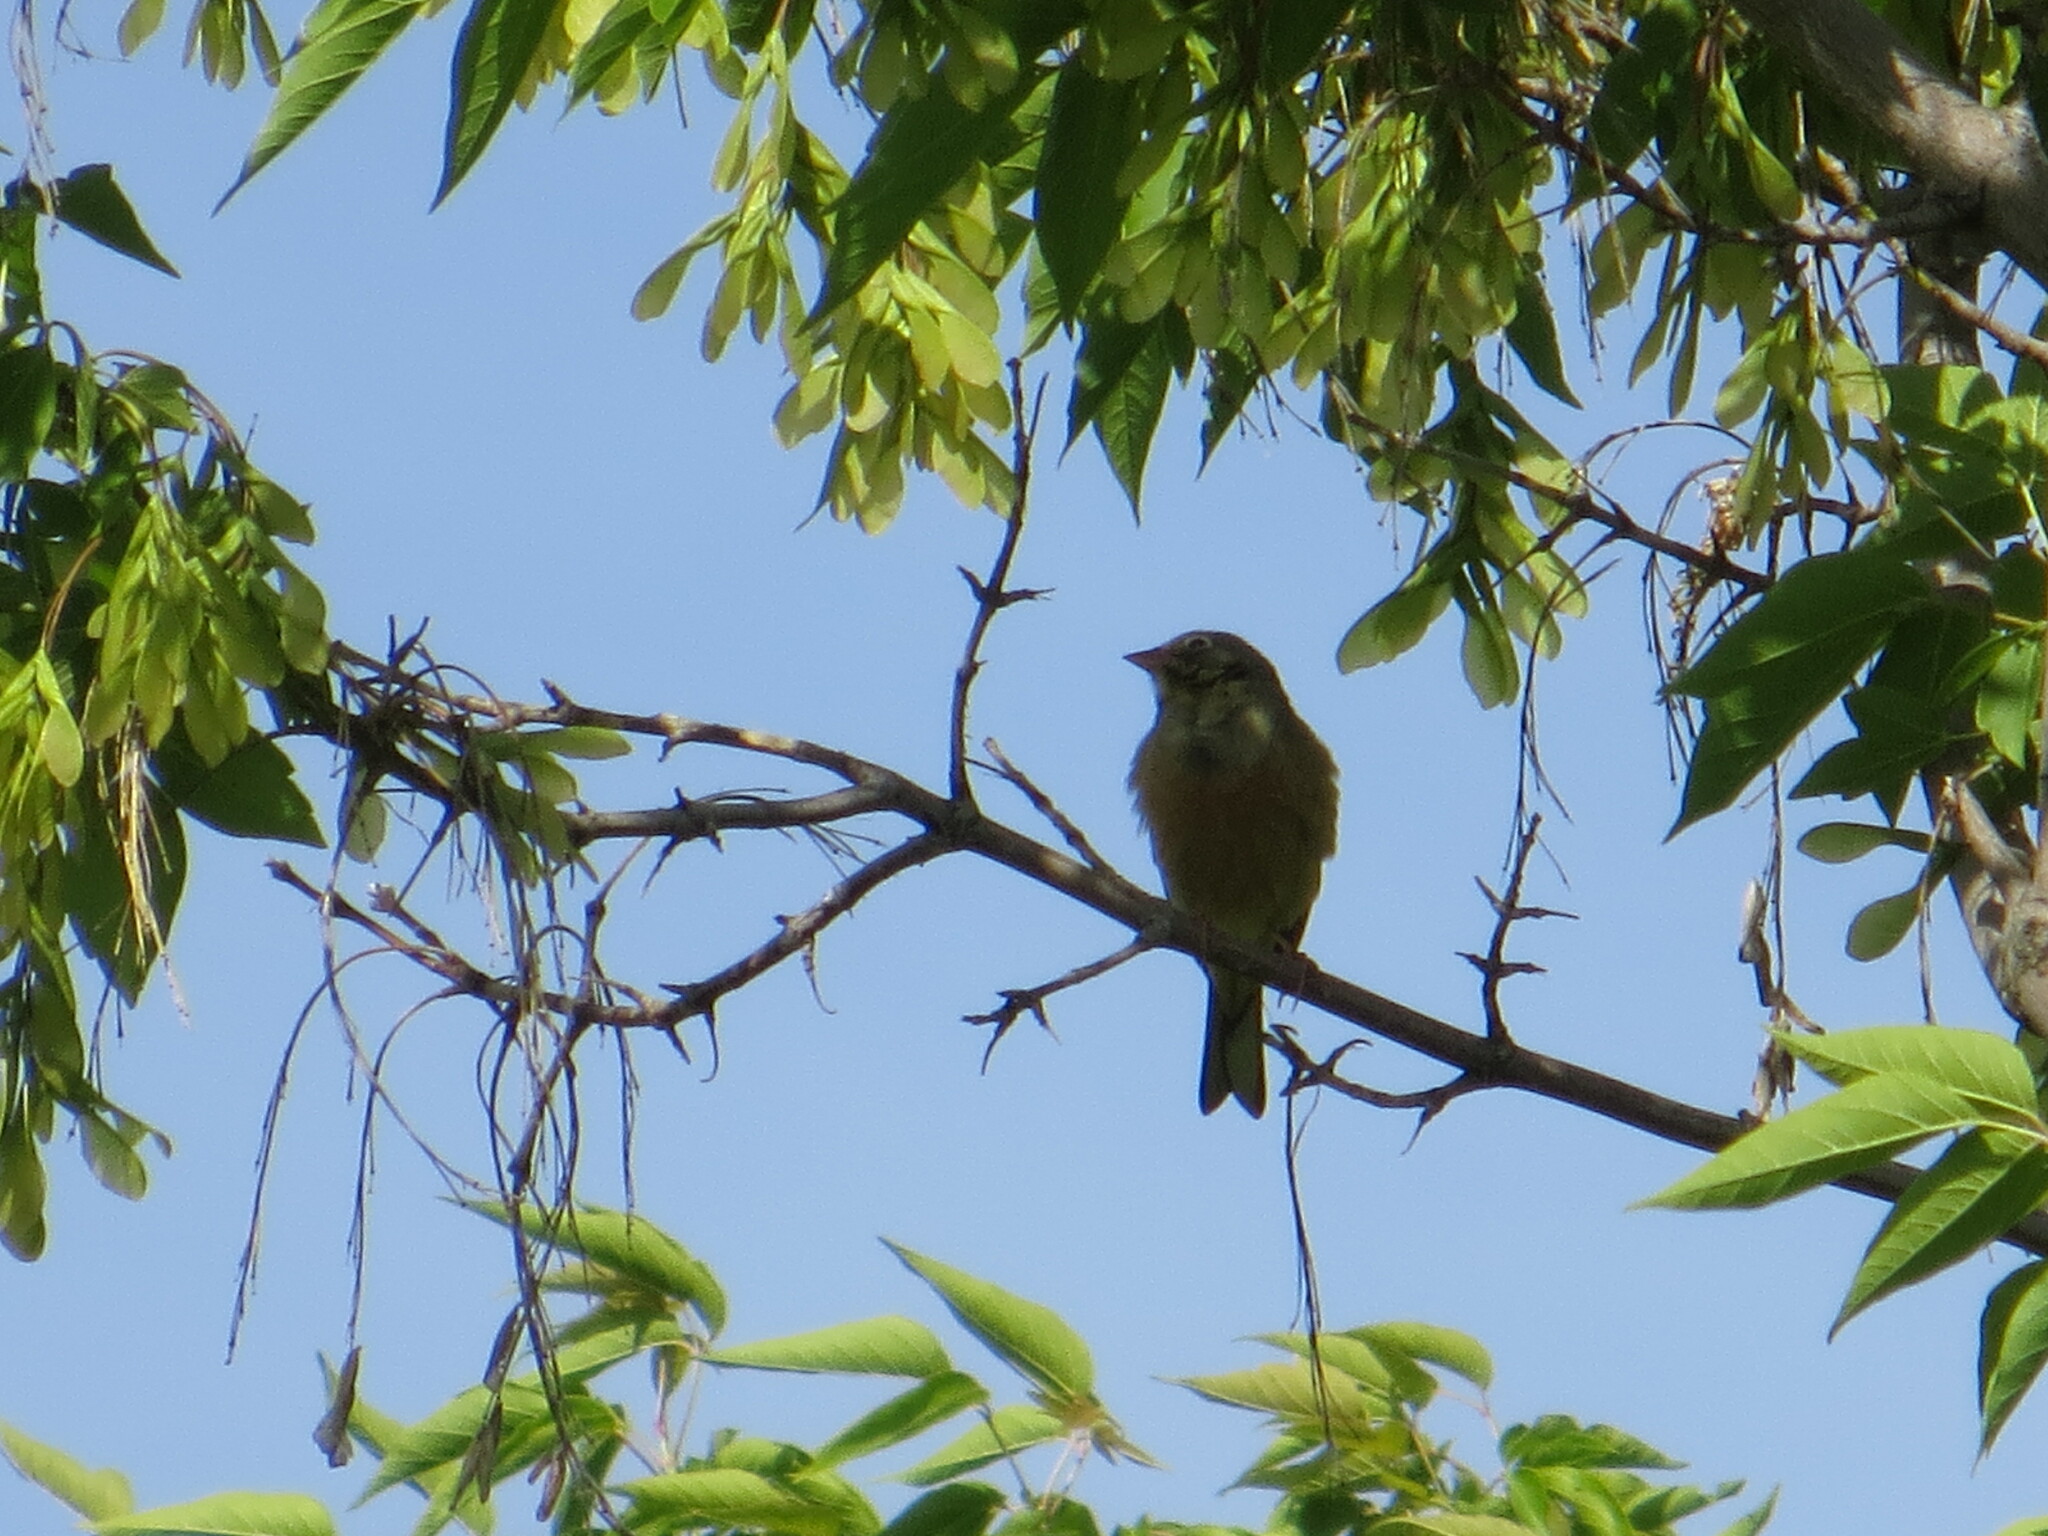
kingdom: Animalia
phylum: Chordata
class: Aves
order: Passeriformes
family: Emberizidae
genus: Emberiza
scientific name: Emberiza hortulana
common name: Ortolan bunting
